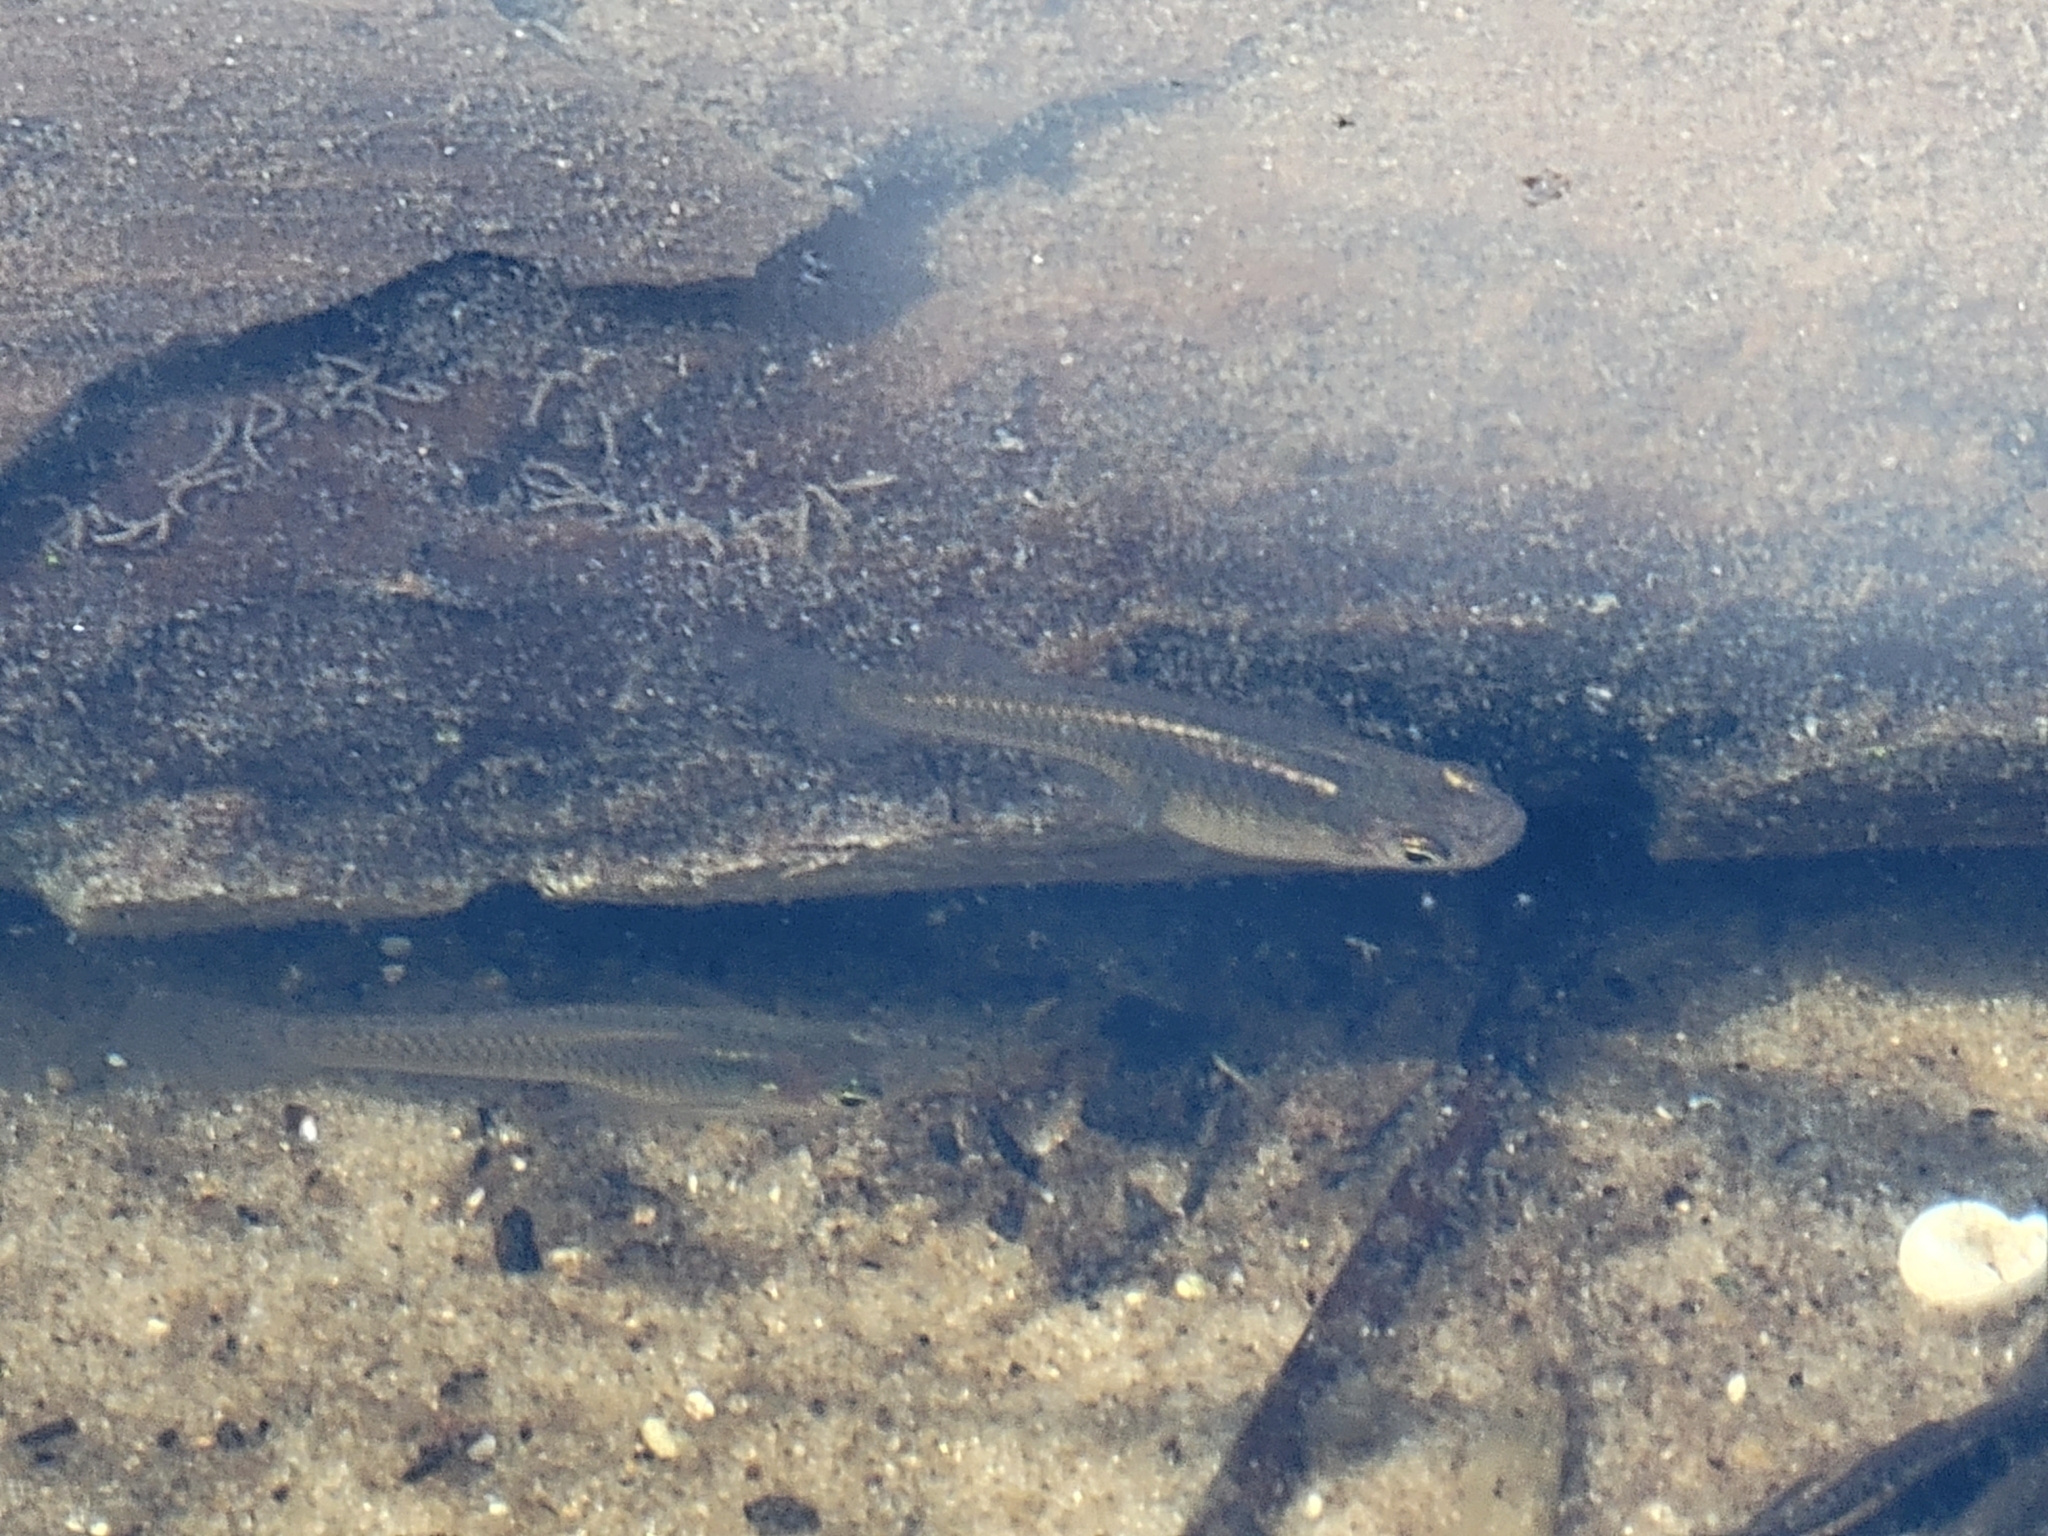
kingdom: Animalia
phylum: Chordata
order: Cyprinodontiformes
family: Poeciliidae
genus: Gambusia
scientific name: Gambusia holbrooki
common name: Eastern mosquitofish
